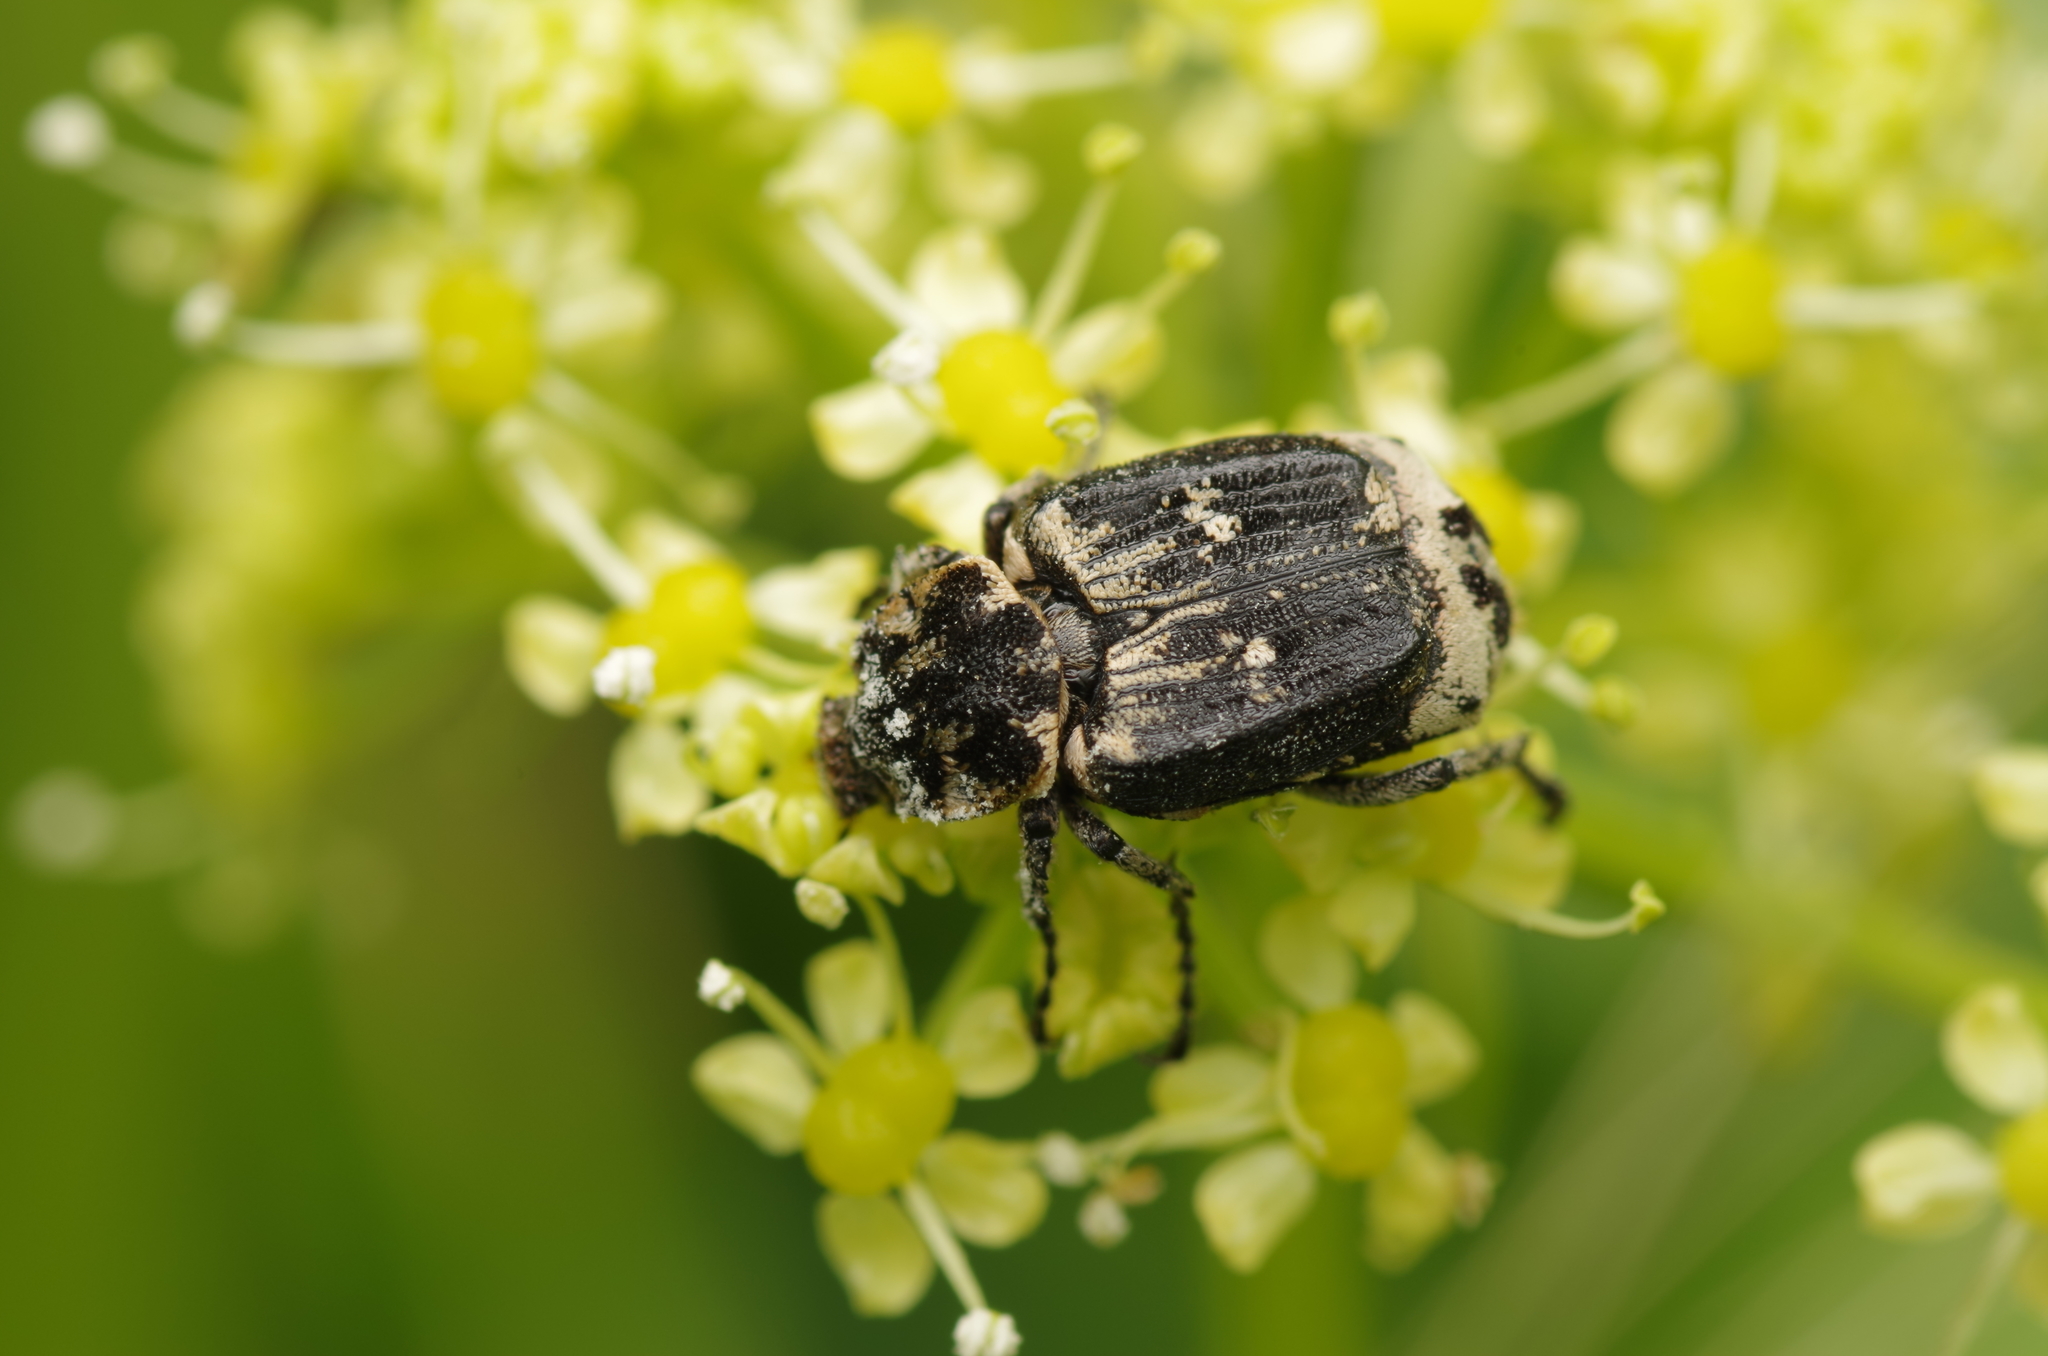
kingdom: Animalia
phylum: Arthropoda
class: Insecta
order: Coleoptera
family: Scarabaeidae
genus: Valgus
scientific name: Valgus hemipterus
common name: Bug flower chafer
